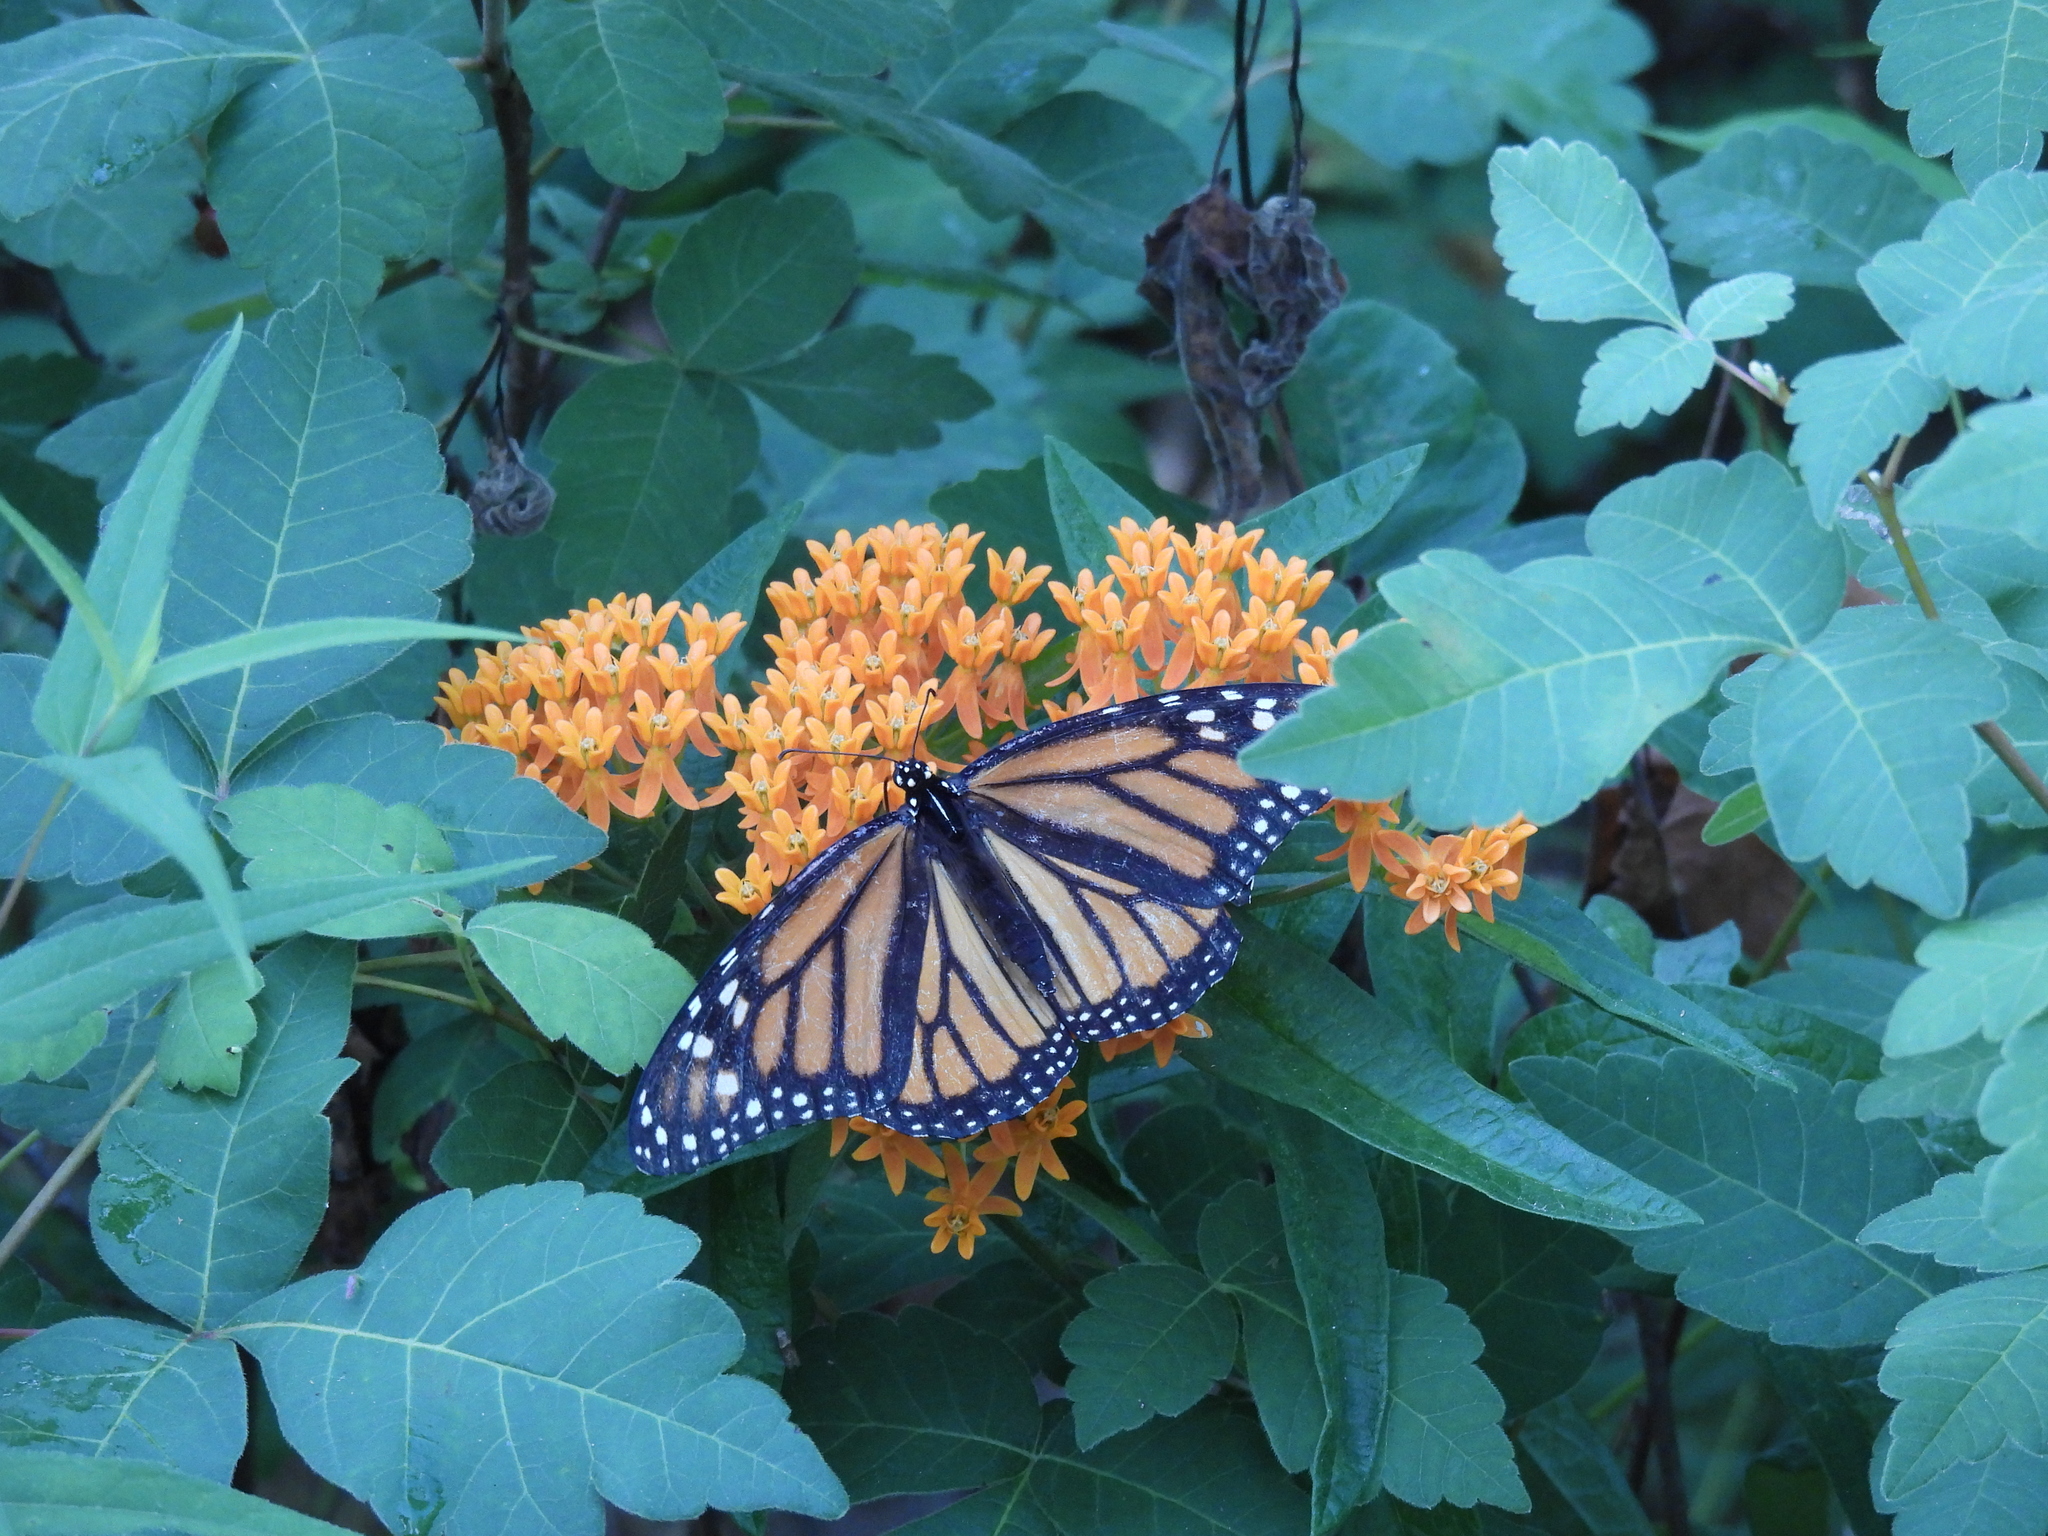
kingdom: Animalia
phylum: Arthropoda
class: Insecta
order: Lepidoptera
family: Nymphalidae
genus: Danaus
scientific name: Danaus plexippus
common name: Monarch
